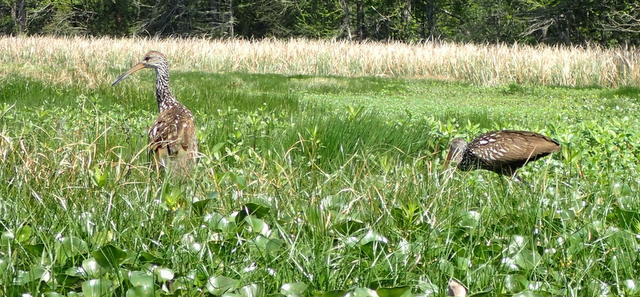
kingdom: Animalia
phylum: Chordata
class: Aves
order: Gruiformes
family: Aramidae
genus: Aramus
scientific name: Aramus guarauna
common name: Limpkin
